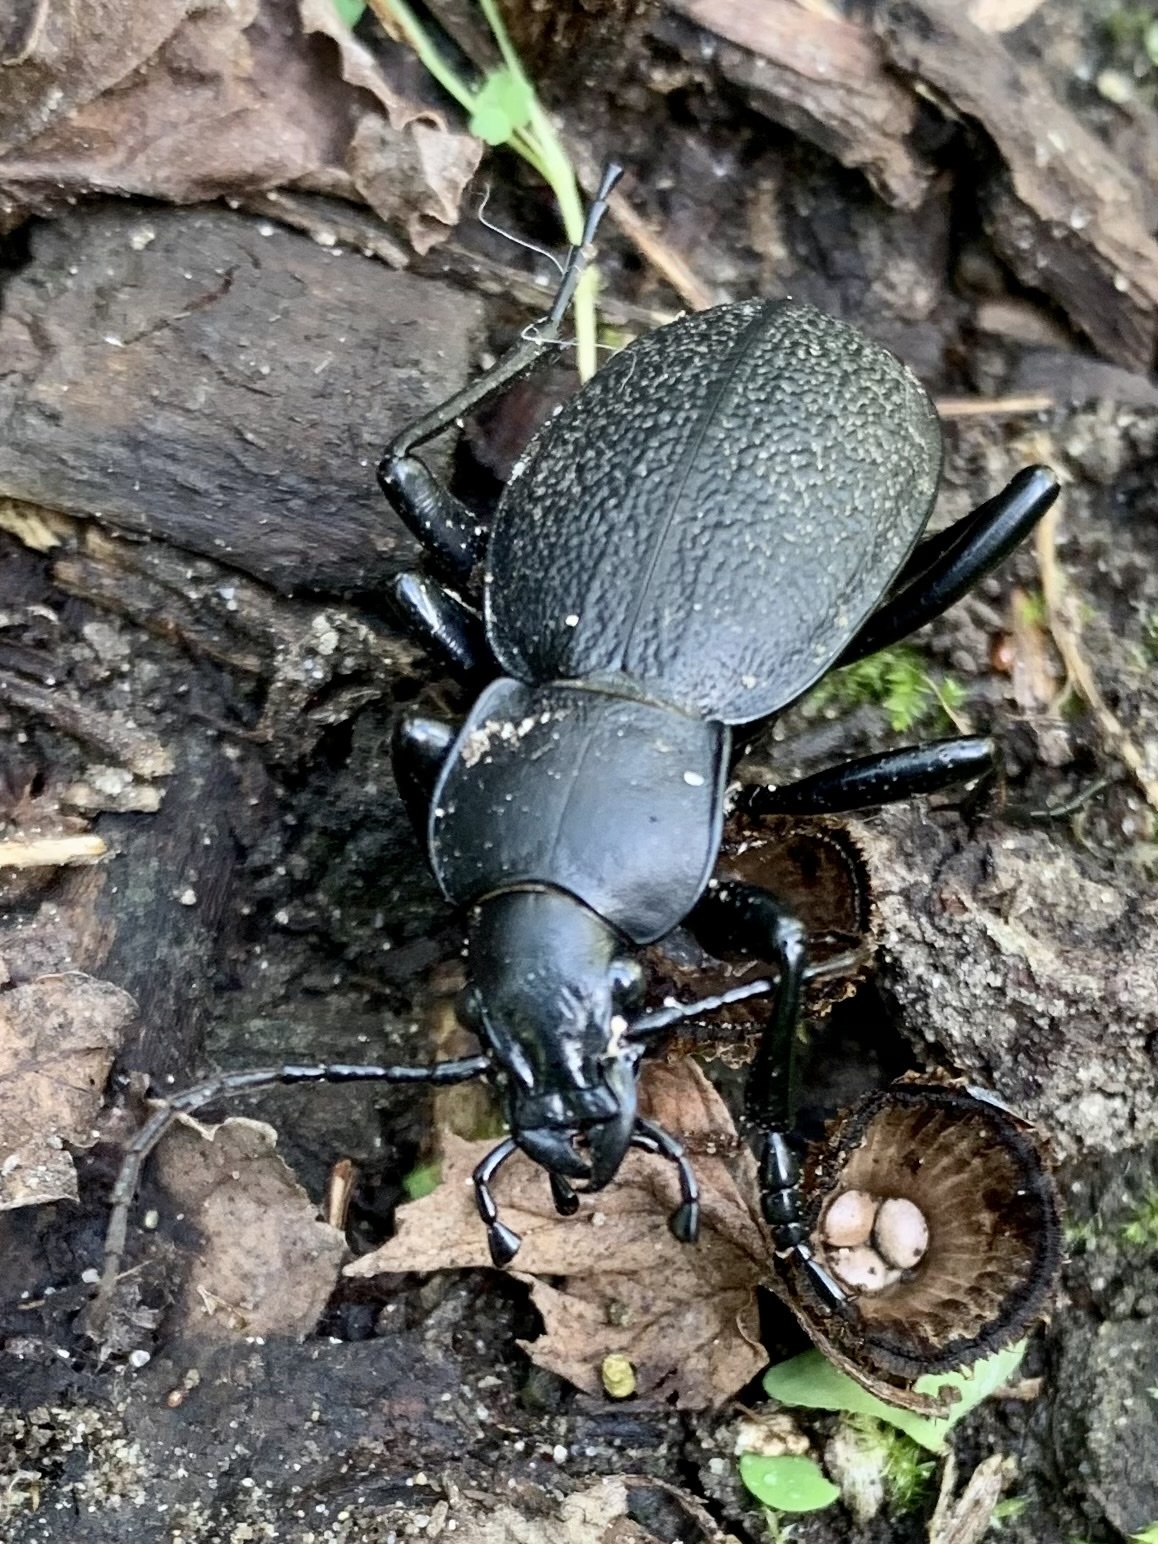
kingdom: Animalia
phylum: Arthropoda
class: Insecta
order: Coleoptera
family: Carabidae
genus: Carabus
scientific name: Carabus coriaceus
